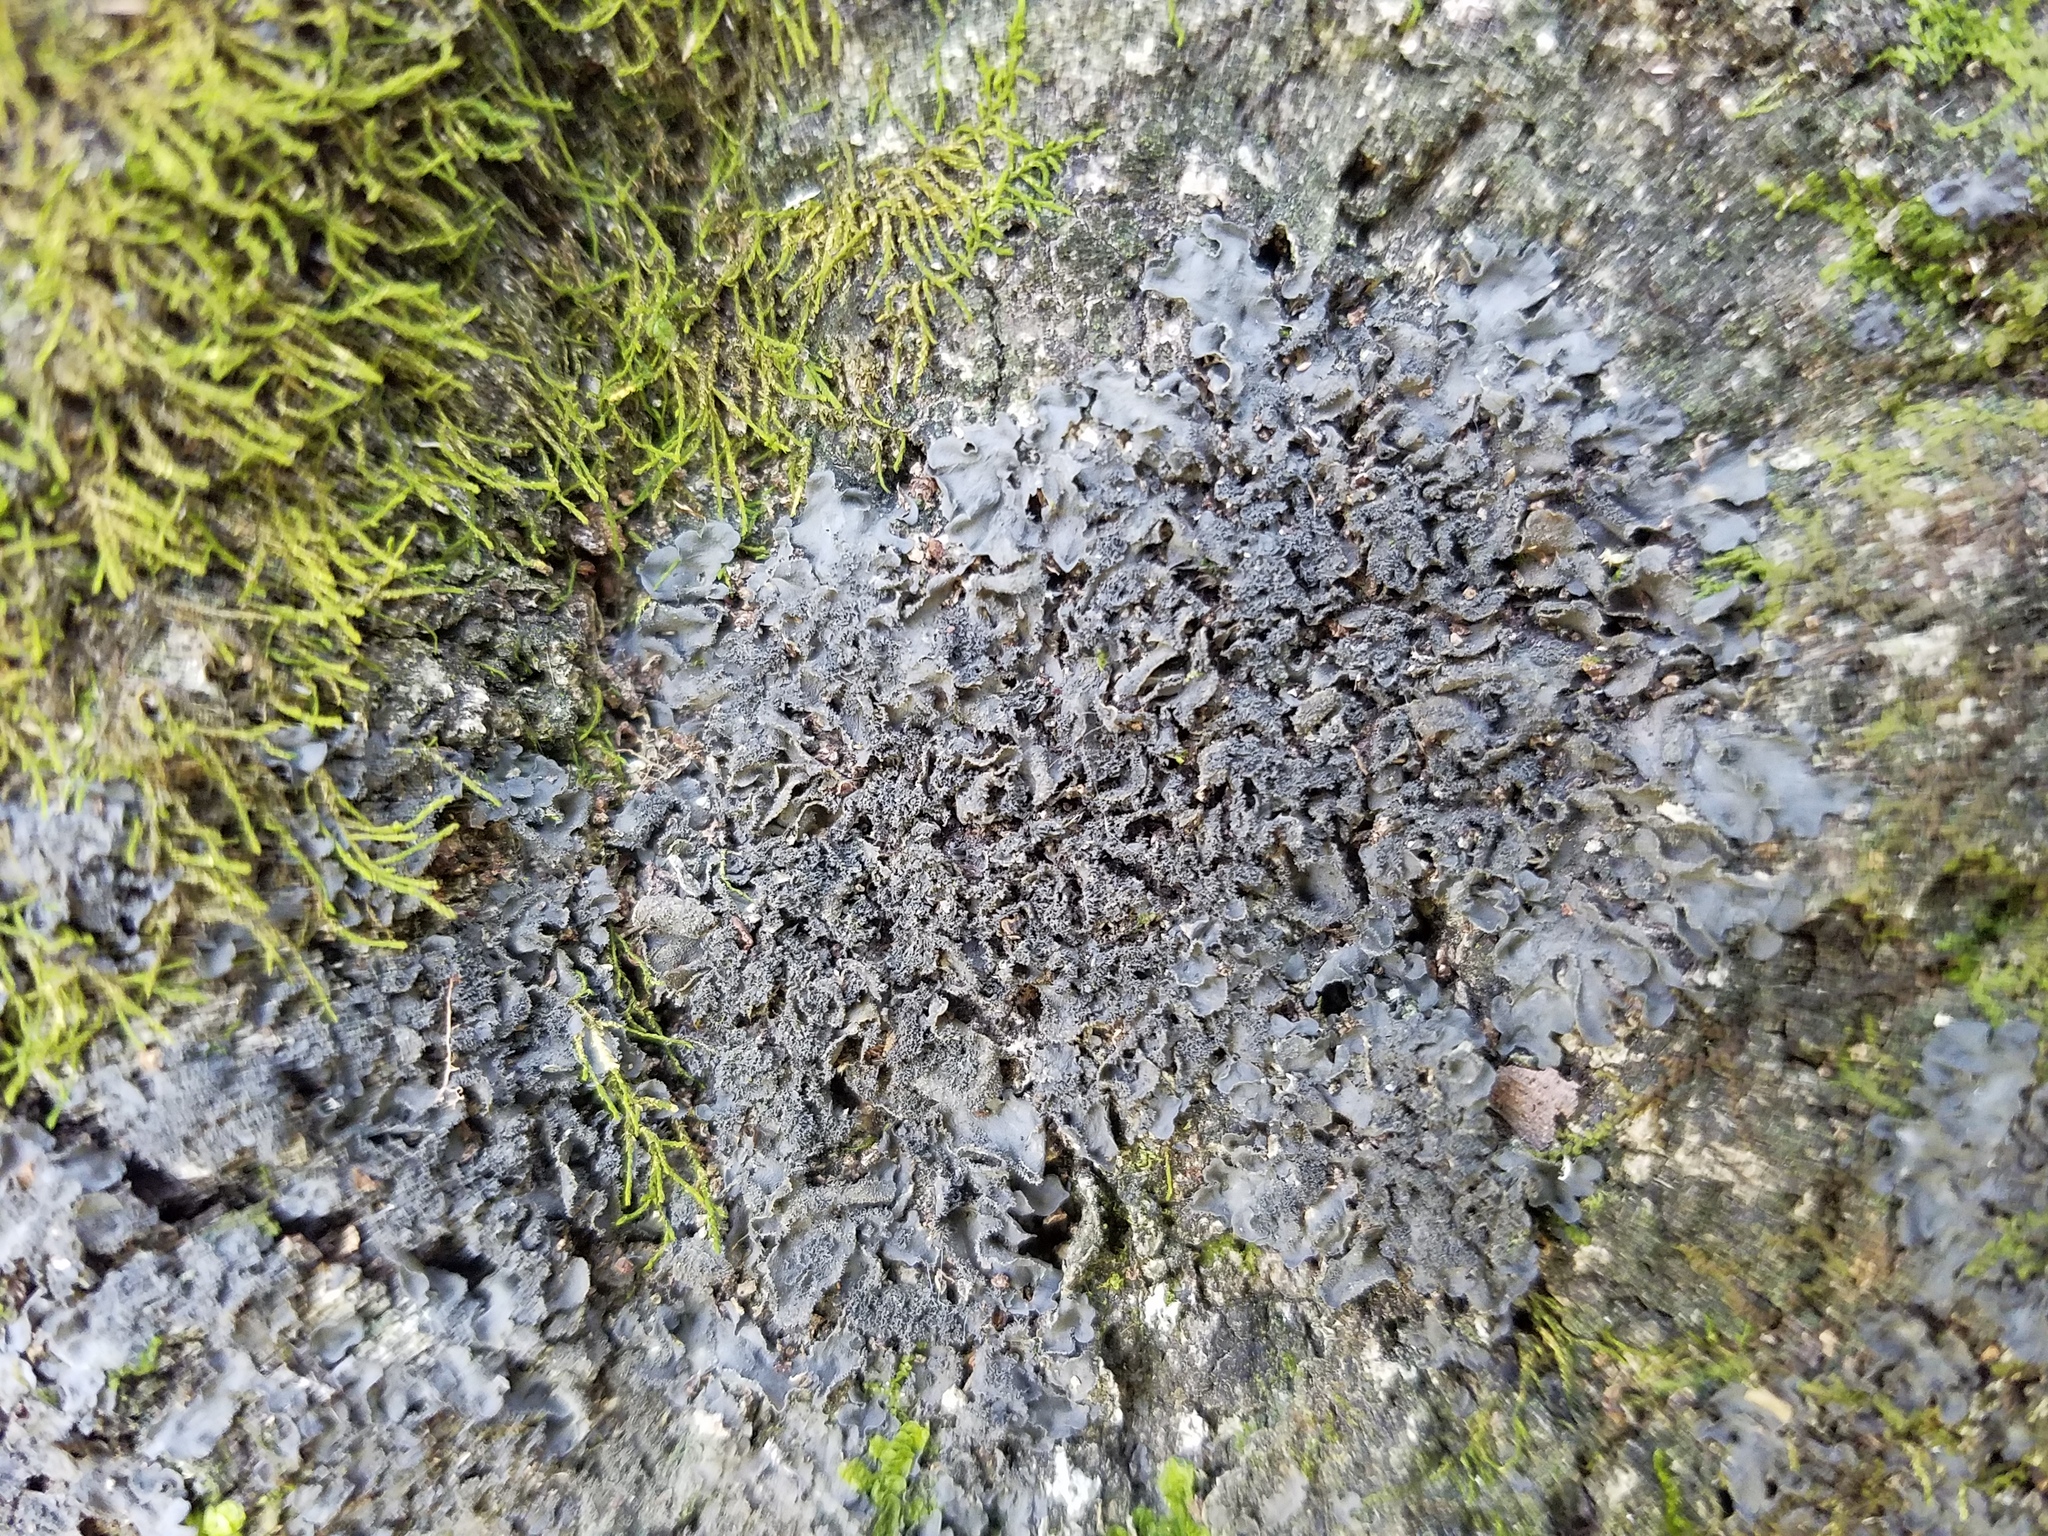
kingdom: Fungi
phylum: Ascomycota
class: Lecanoromycetes
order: Peltigerales
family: Collemataceae
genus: Leptogium
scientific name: Leptogium austroamericanum
